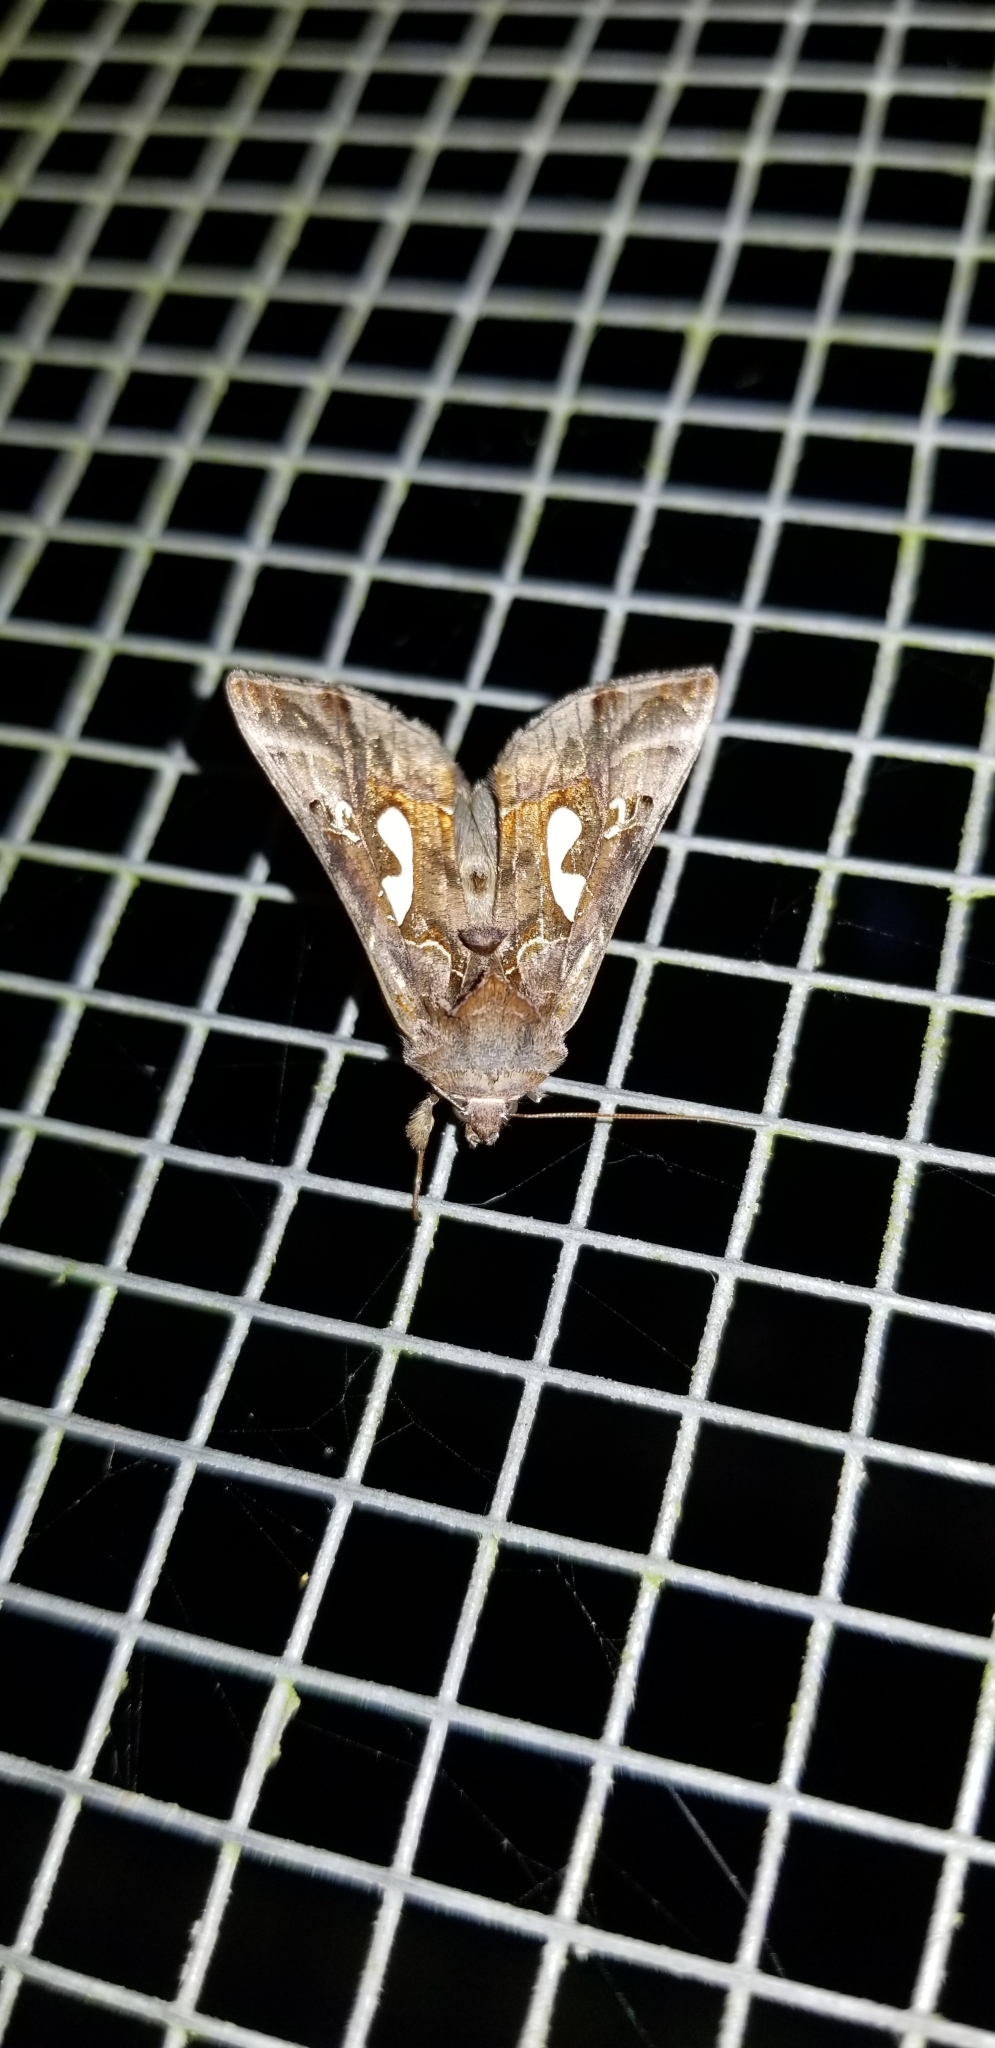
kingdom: Animalia
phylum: Arthropoda
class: Insecta
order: Lepidoptera
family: Noctuidae
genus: Megalographa
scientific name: Megalographa biloba
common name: Cutworm
